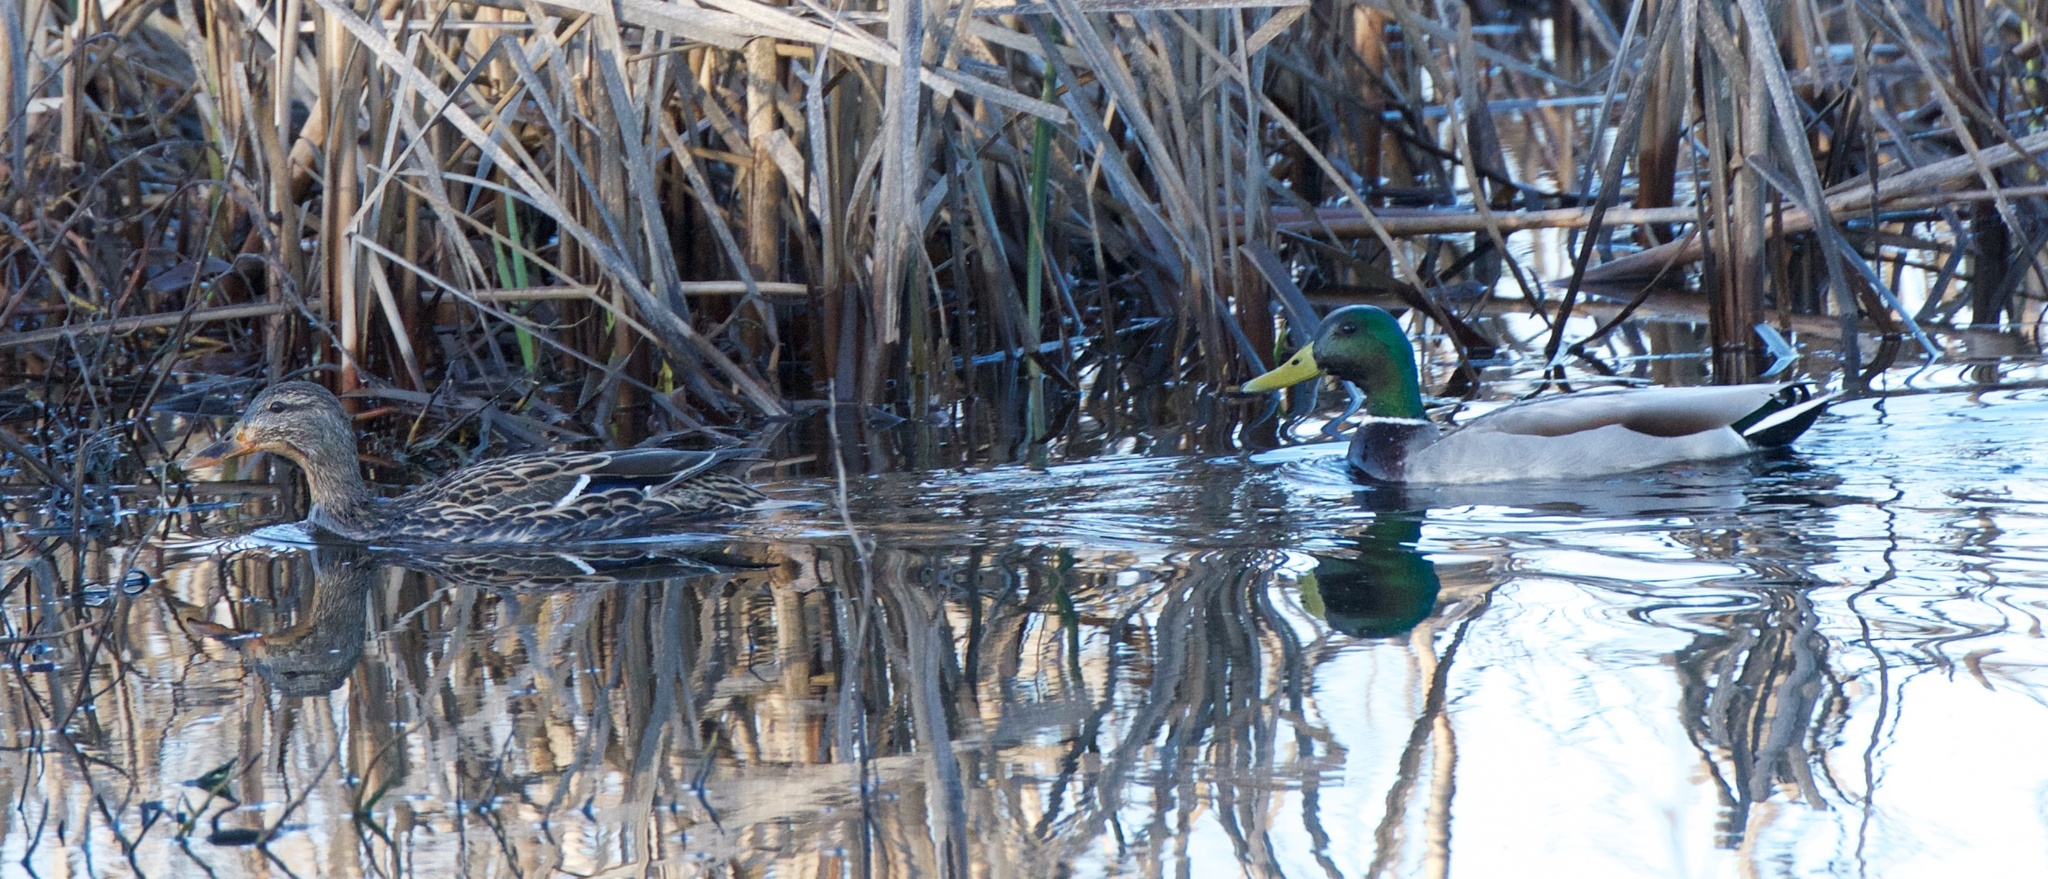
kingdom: Animalia
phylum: Chordata
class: Aves
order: Anseriformes
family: Anatidae
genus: Anas
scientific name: Anas platyrhynchos
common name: Mallard
